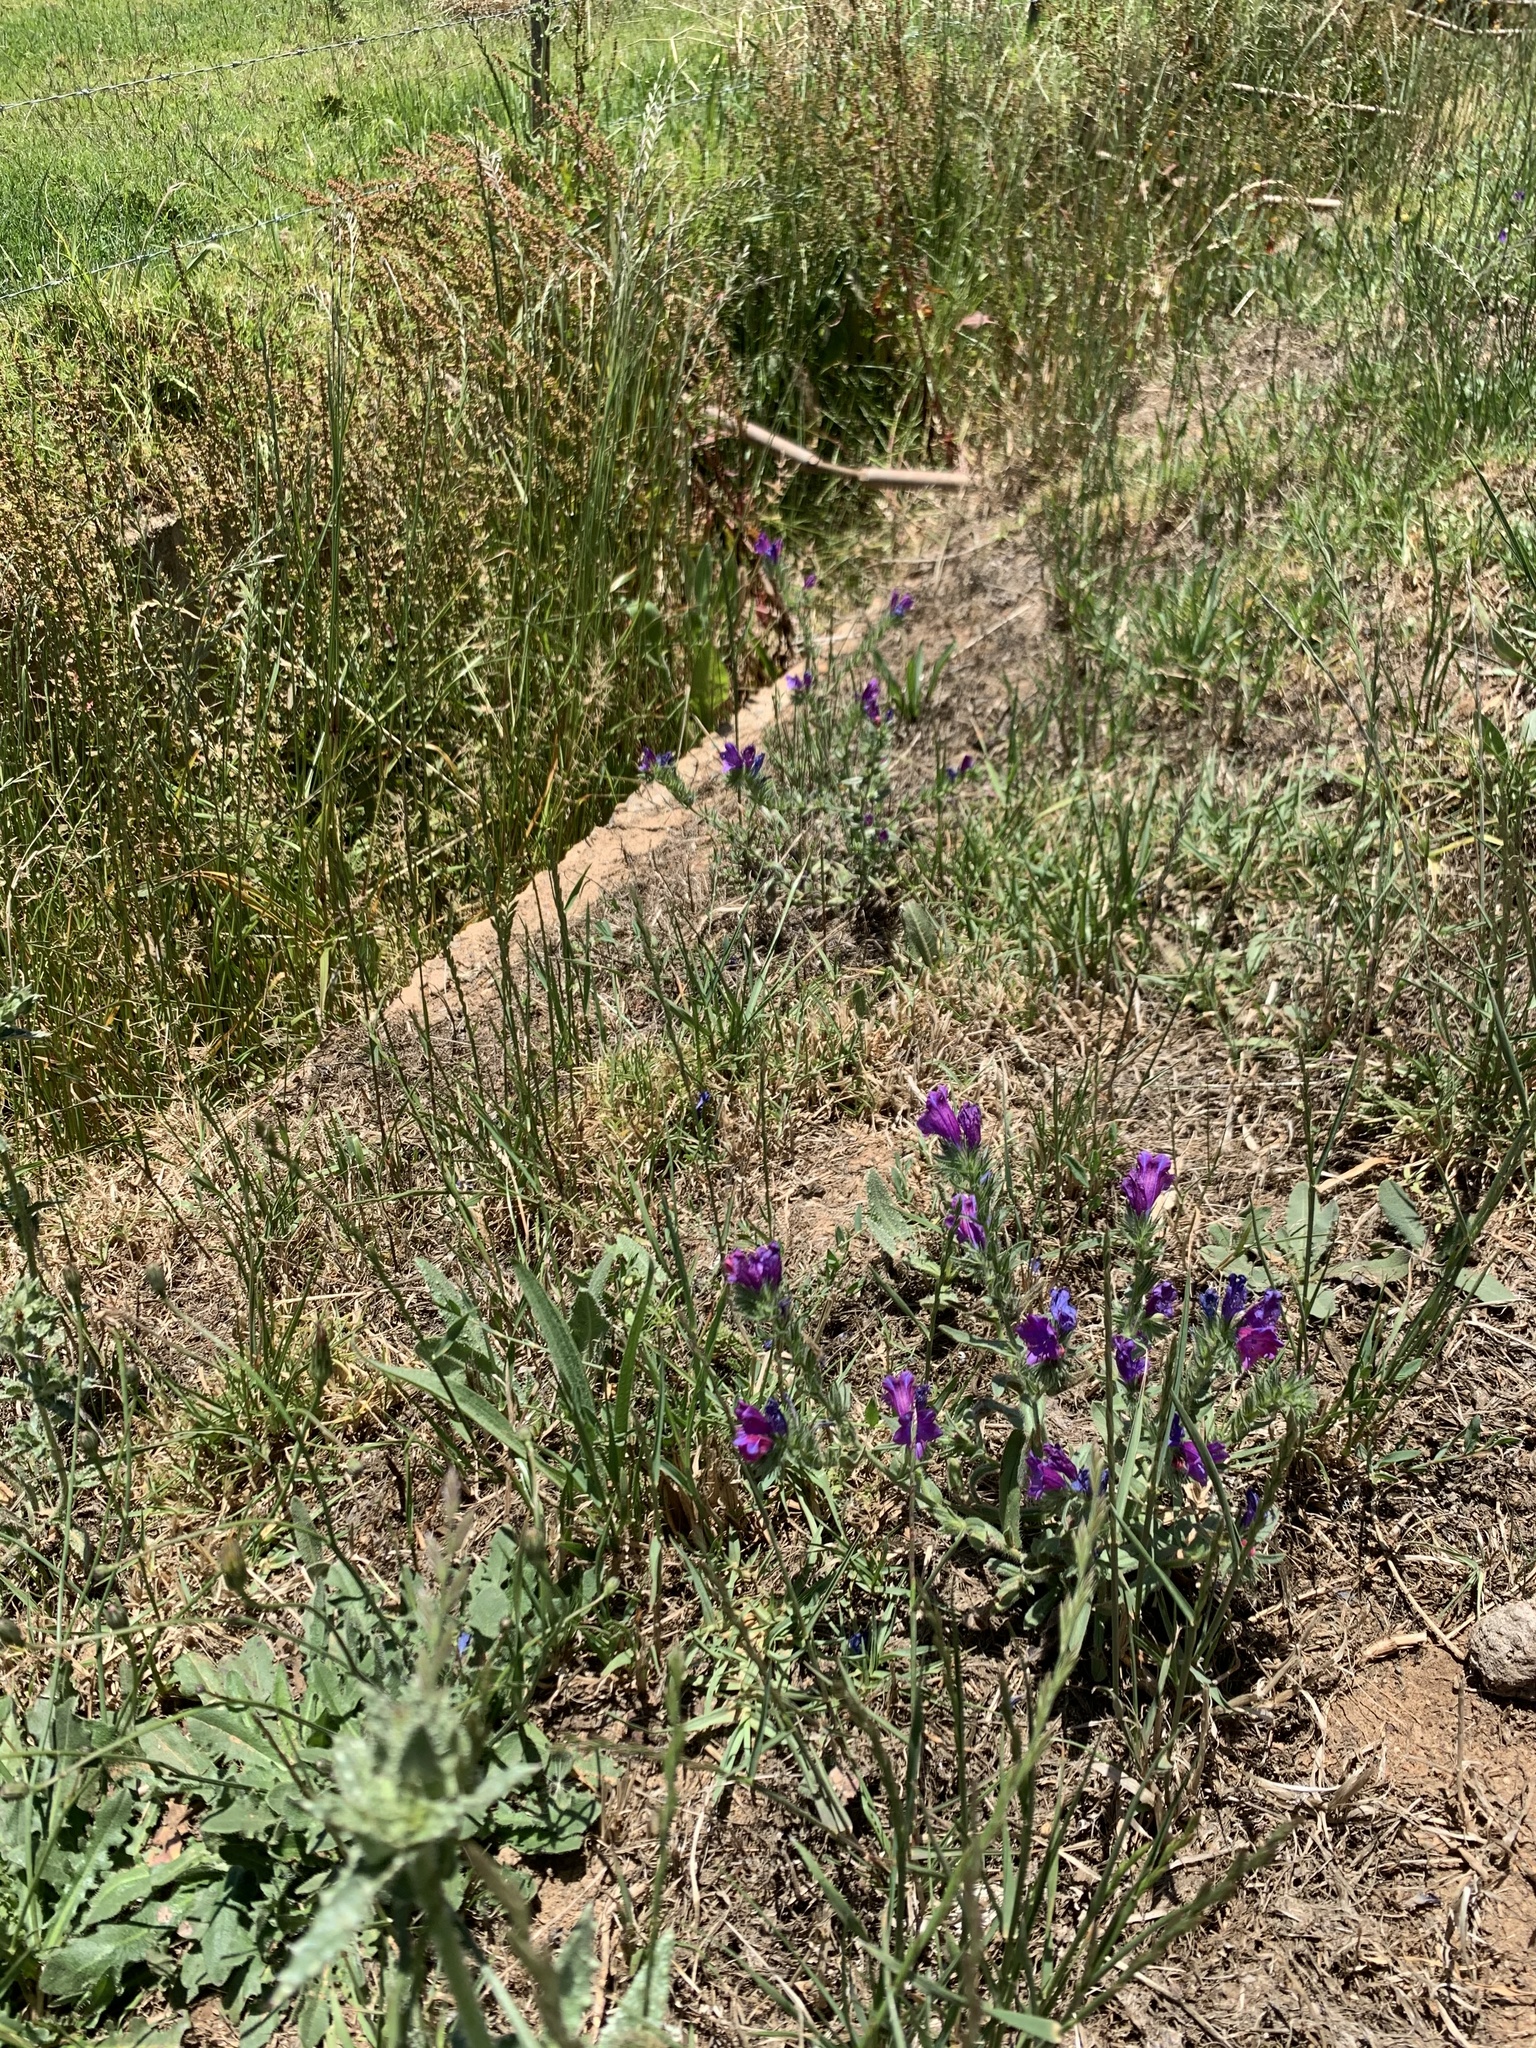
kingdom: Plantae
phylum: Tracheophyta
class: Magnoliopsida
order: Boraginales
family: Boraginaceae
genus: Echium
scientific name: Echium plantagineum
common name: Purple viper's-bugloss
